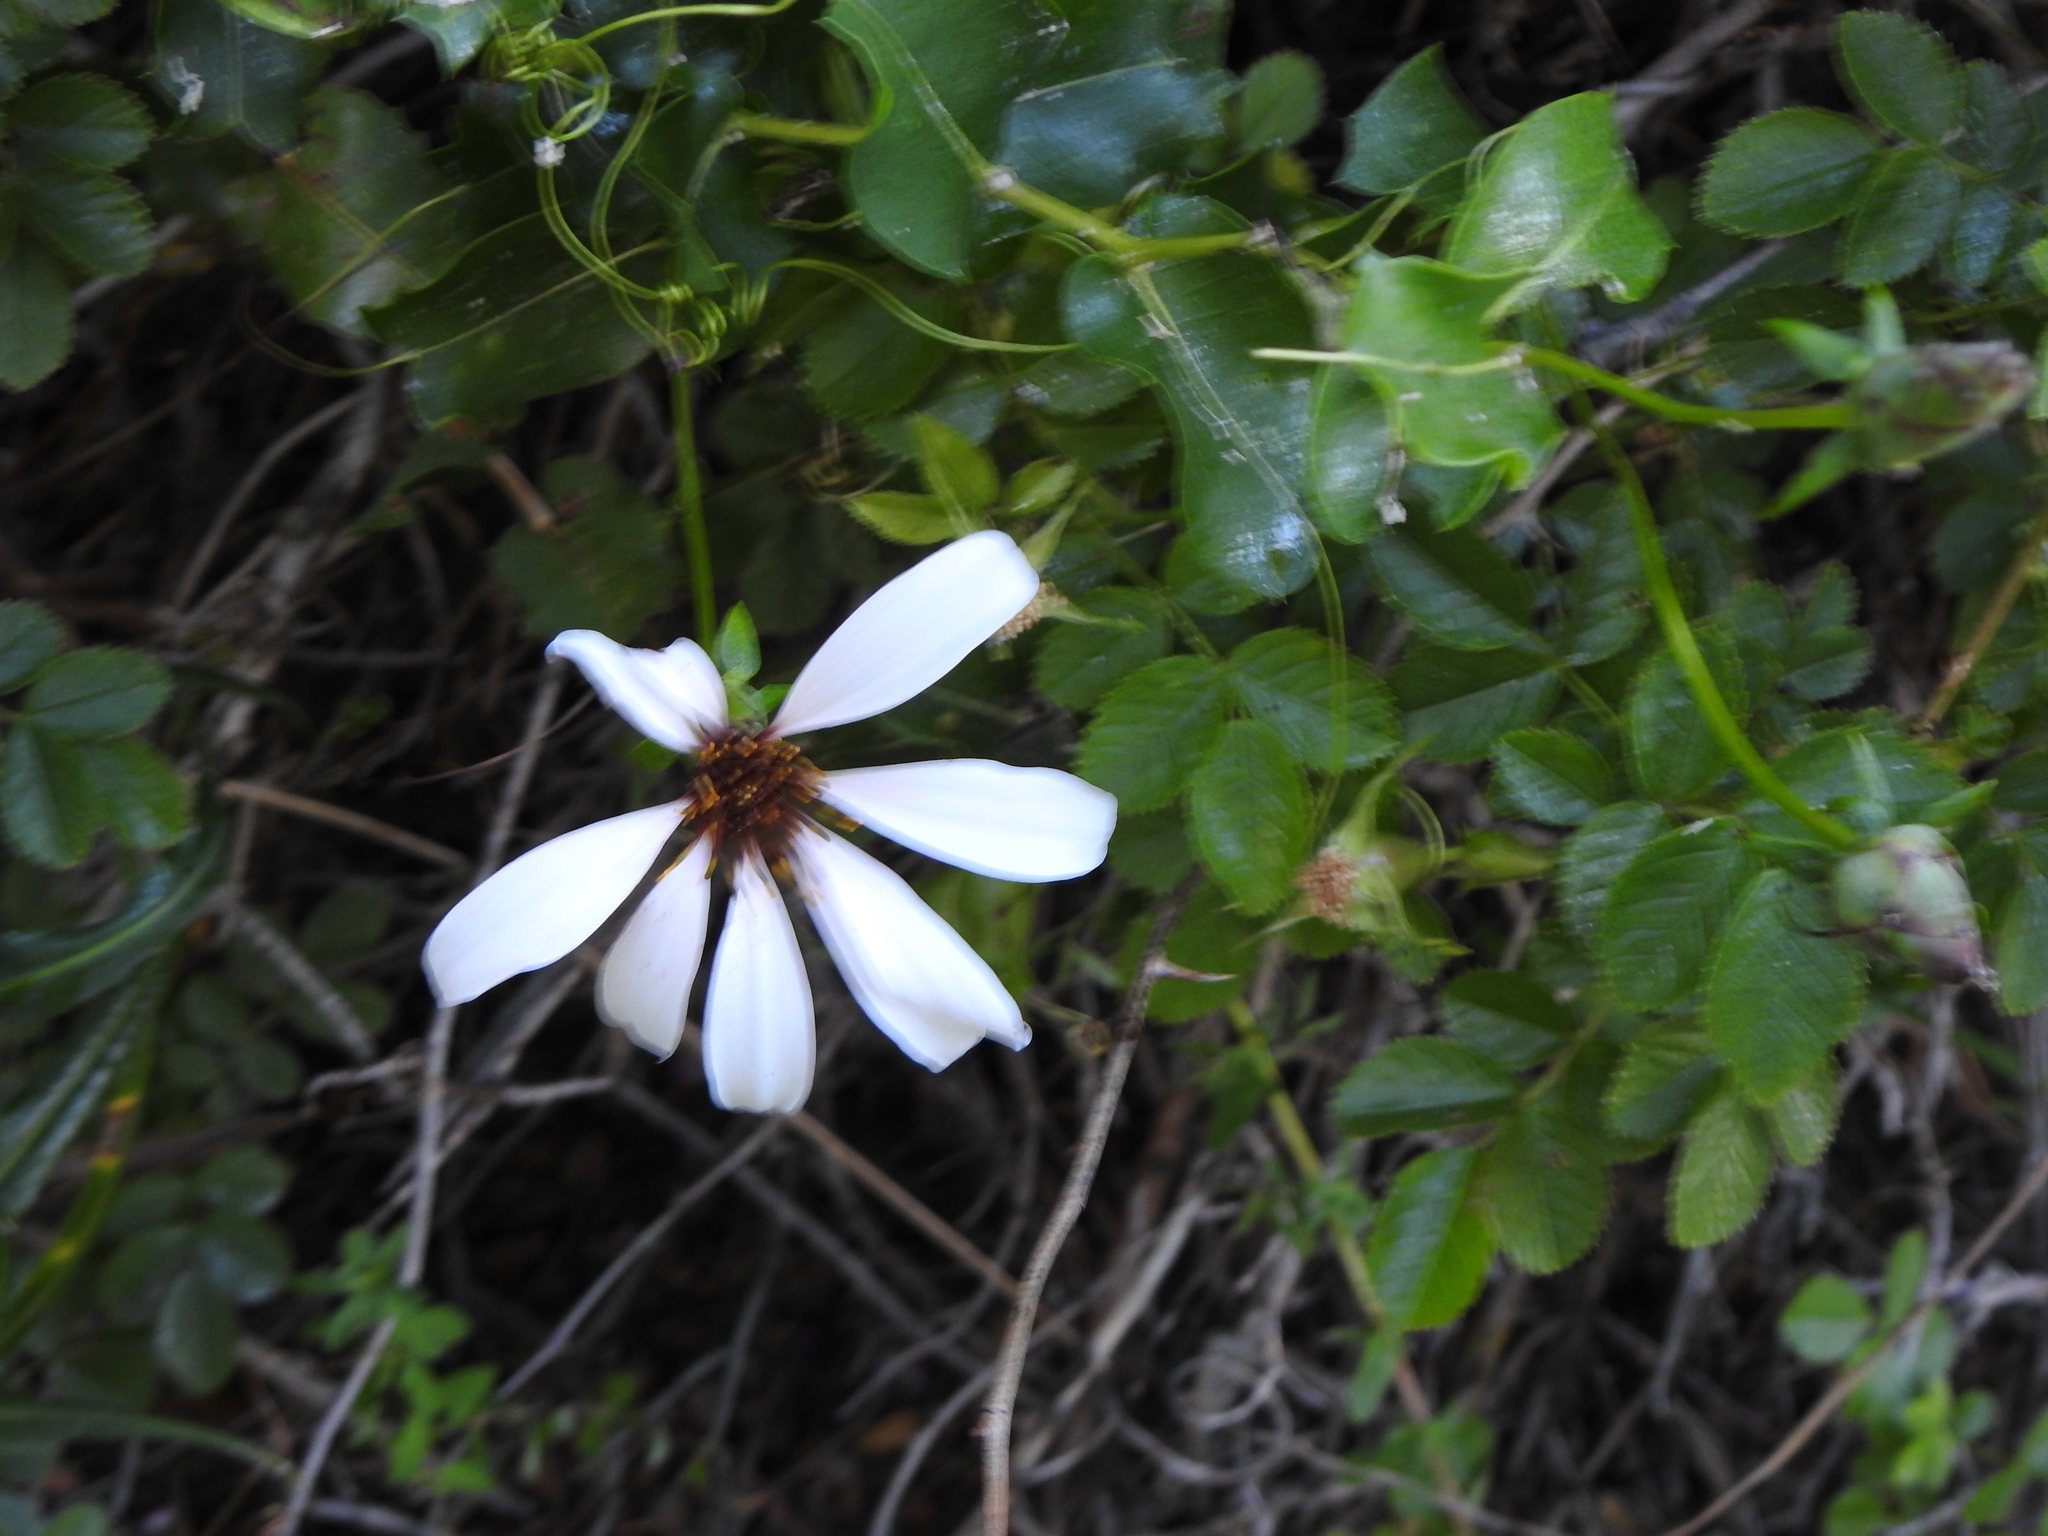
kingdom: Plantae
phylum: Tracheophyta
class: Magnoliopsida
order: Asterales
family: Asteraceae
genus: Mutisia
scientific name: Mutisia spinosa
